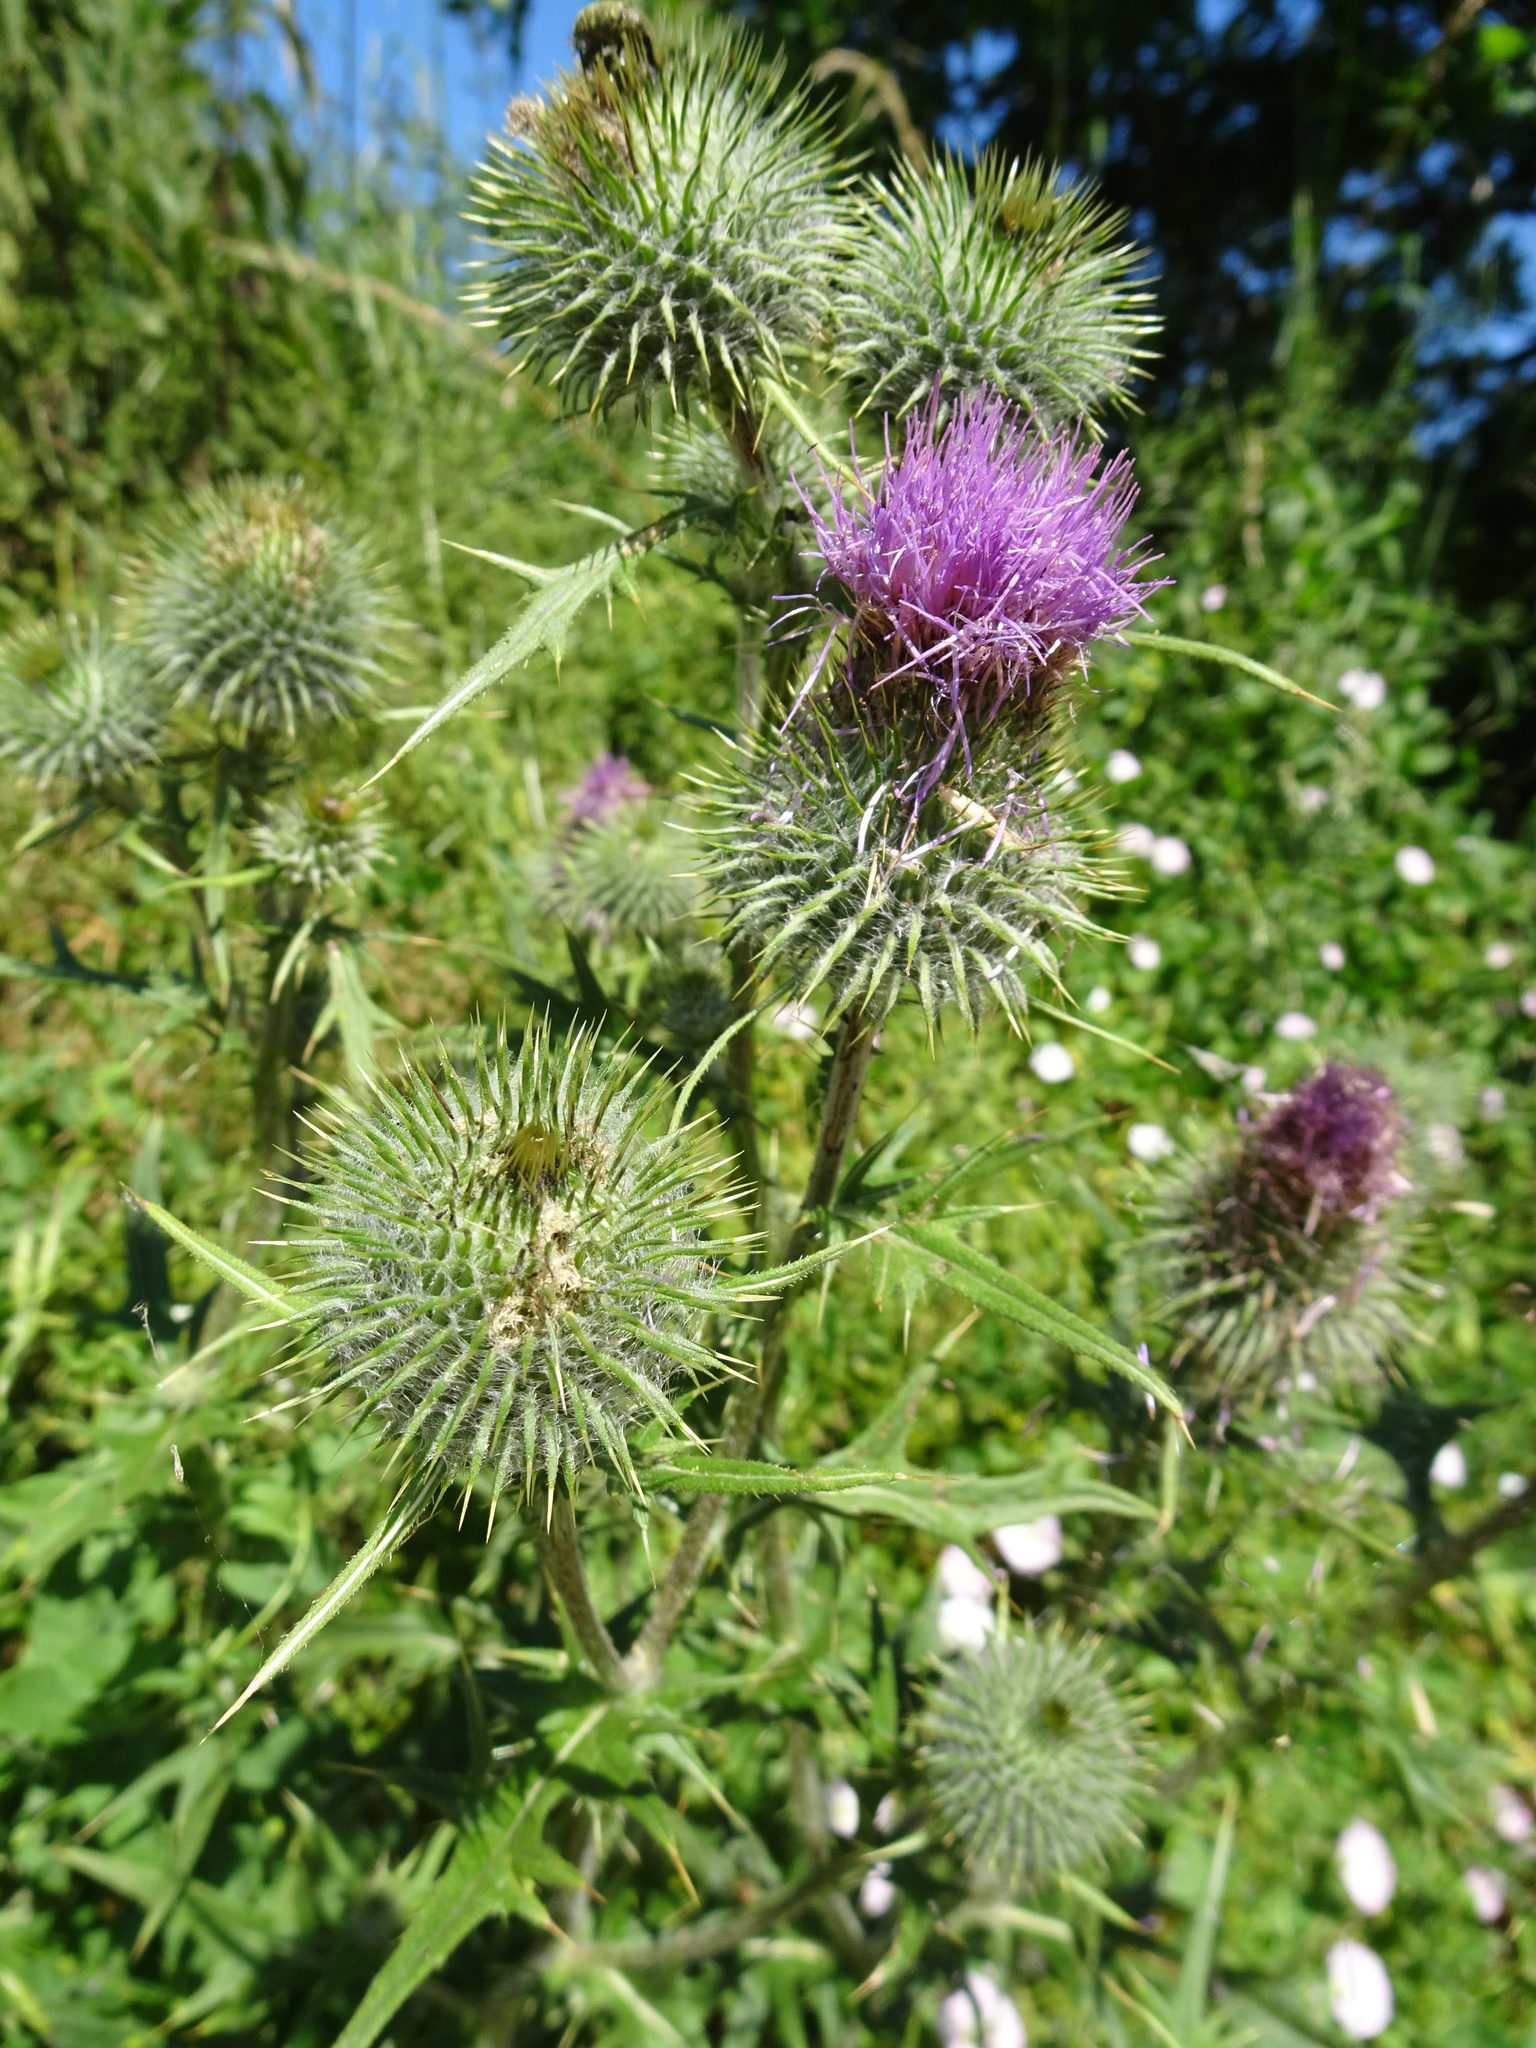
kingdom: Plantae
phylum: Tracheophyta
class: Magnoliopsida
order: Asterales
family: Asteraceae
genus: Cirsium
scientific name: Cirsium vulgare
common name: Bull thistle
